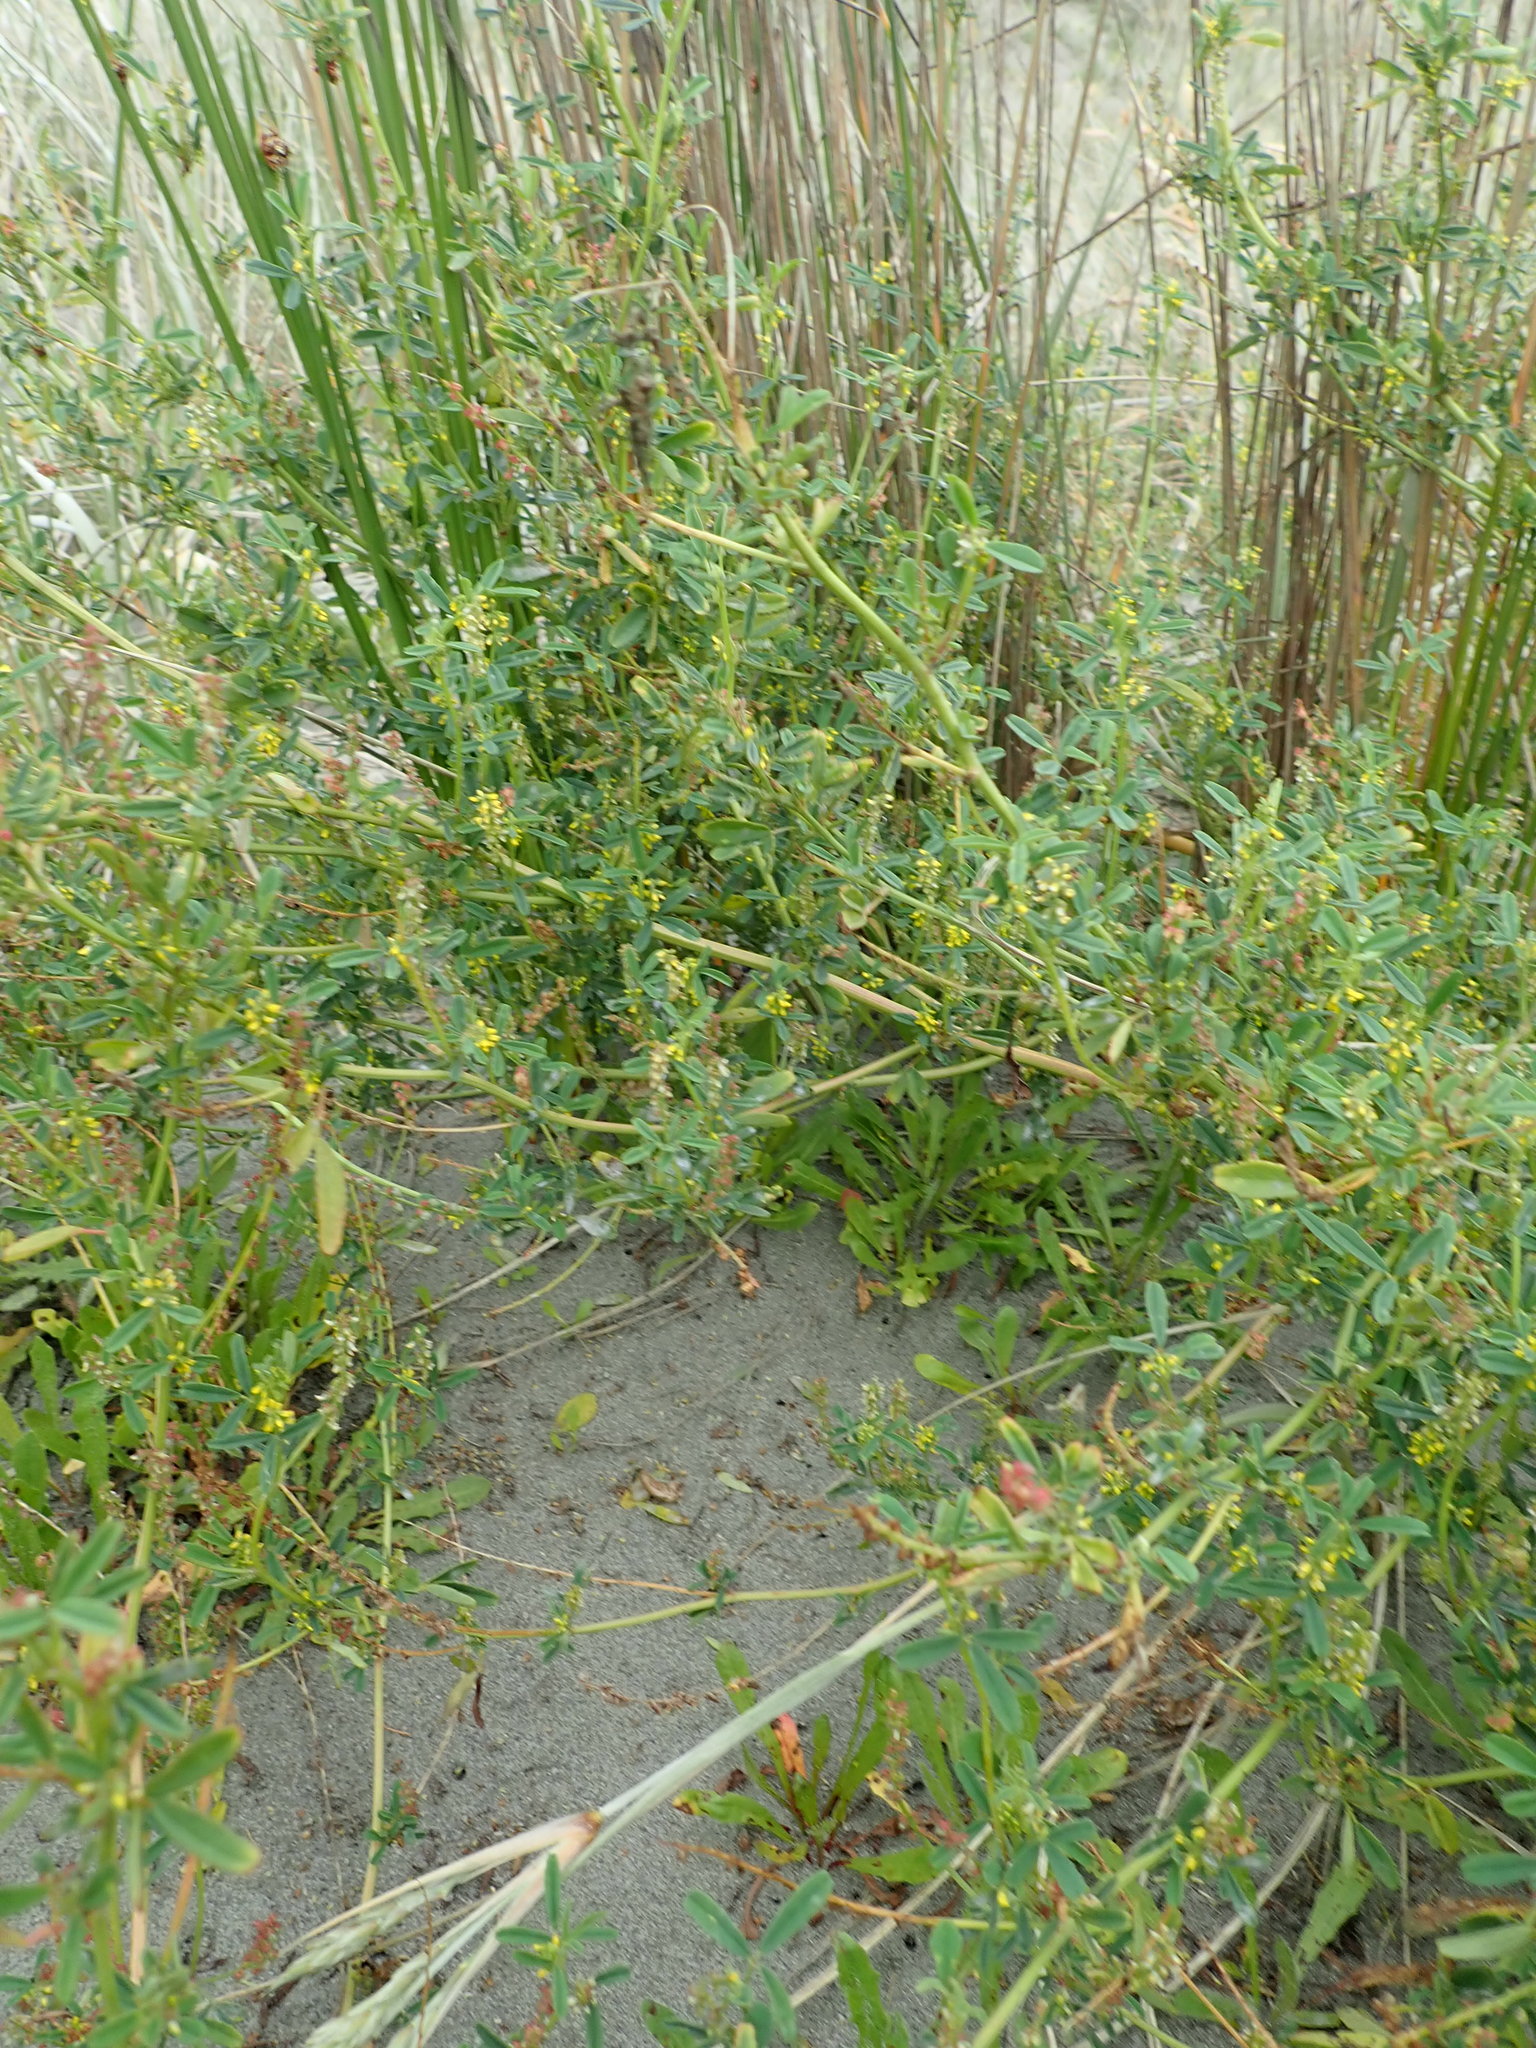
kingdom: Plantae
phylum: Tracheophyta
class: Magnoliopsida
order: Fabales
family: Fabaceae
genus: Melilotus
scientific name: Melilotus indicus
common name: Small melilot
